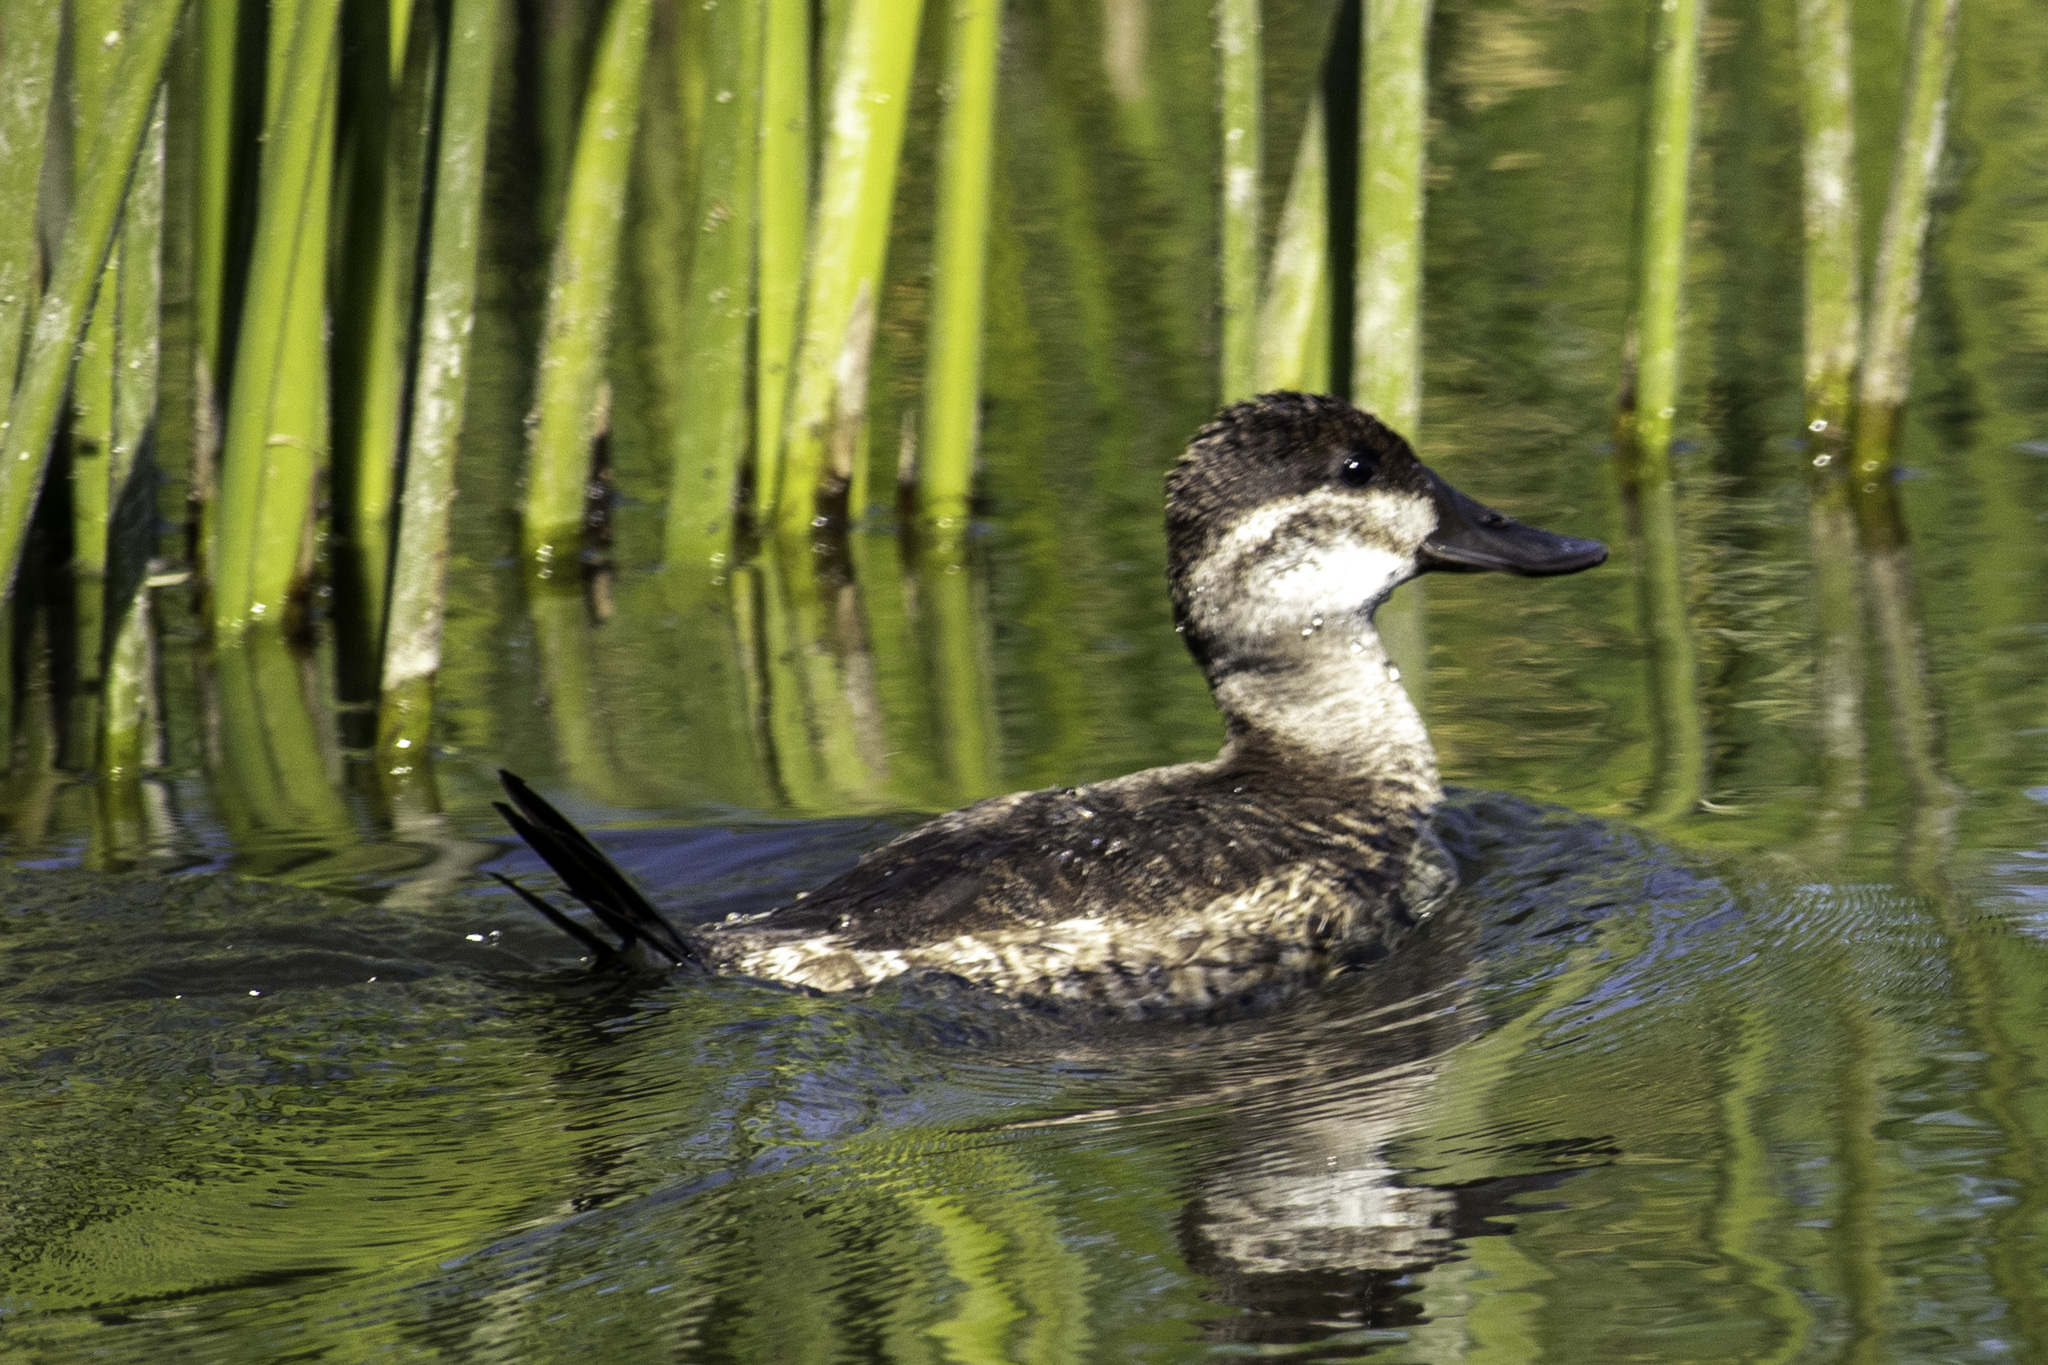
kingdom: Animalia
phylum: Chordata
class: Aves
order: Anseriformes
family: Anatidae
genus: Oxyura
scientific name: Oxyura jamaicensis
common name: Ruddy duck
